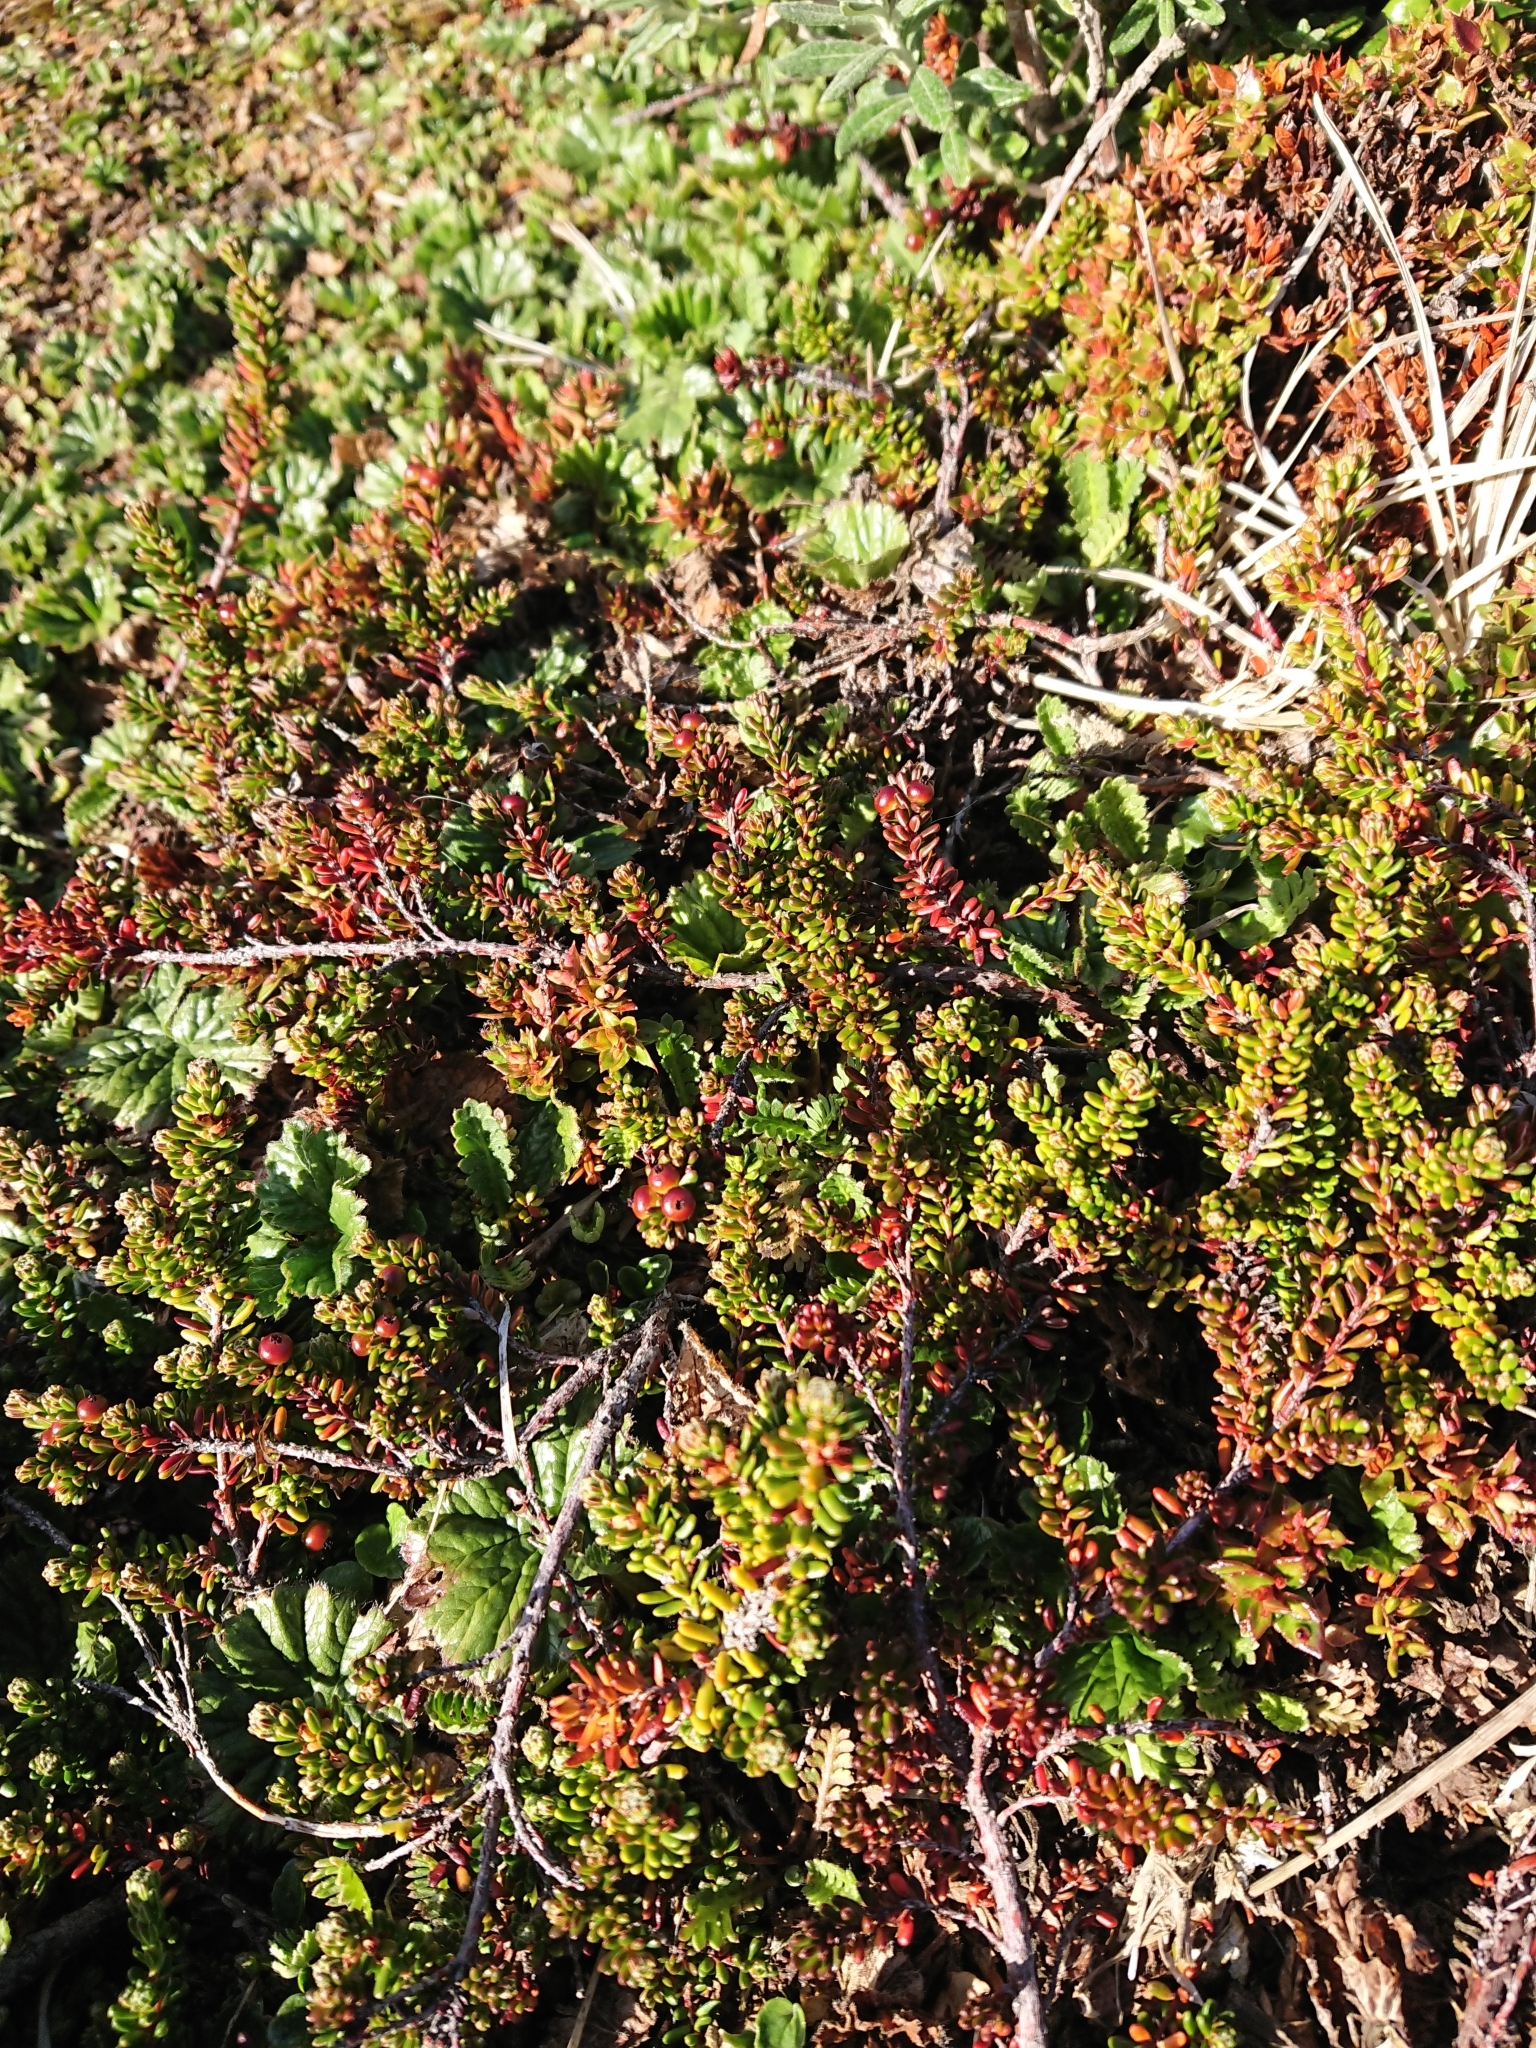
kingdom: Plantae
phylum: Tracheophyta
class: Magnoliopsida
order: Ericales
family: Ericaceae
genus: Empetrum
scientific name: Empetrum rubrum
